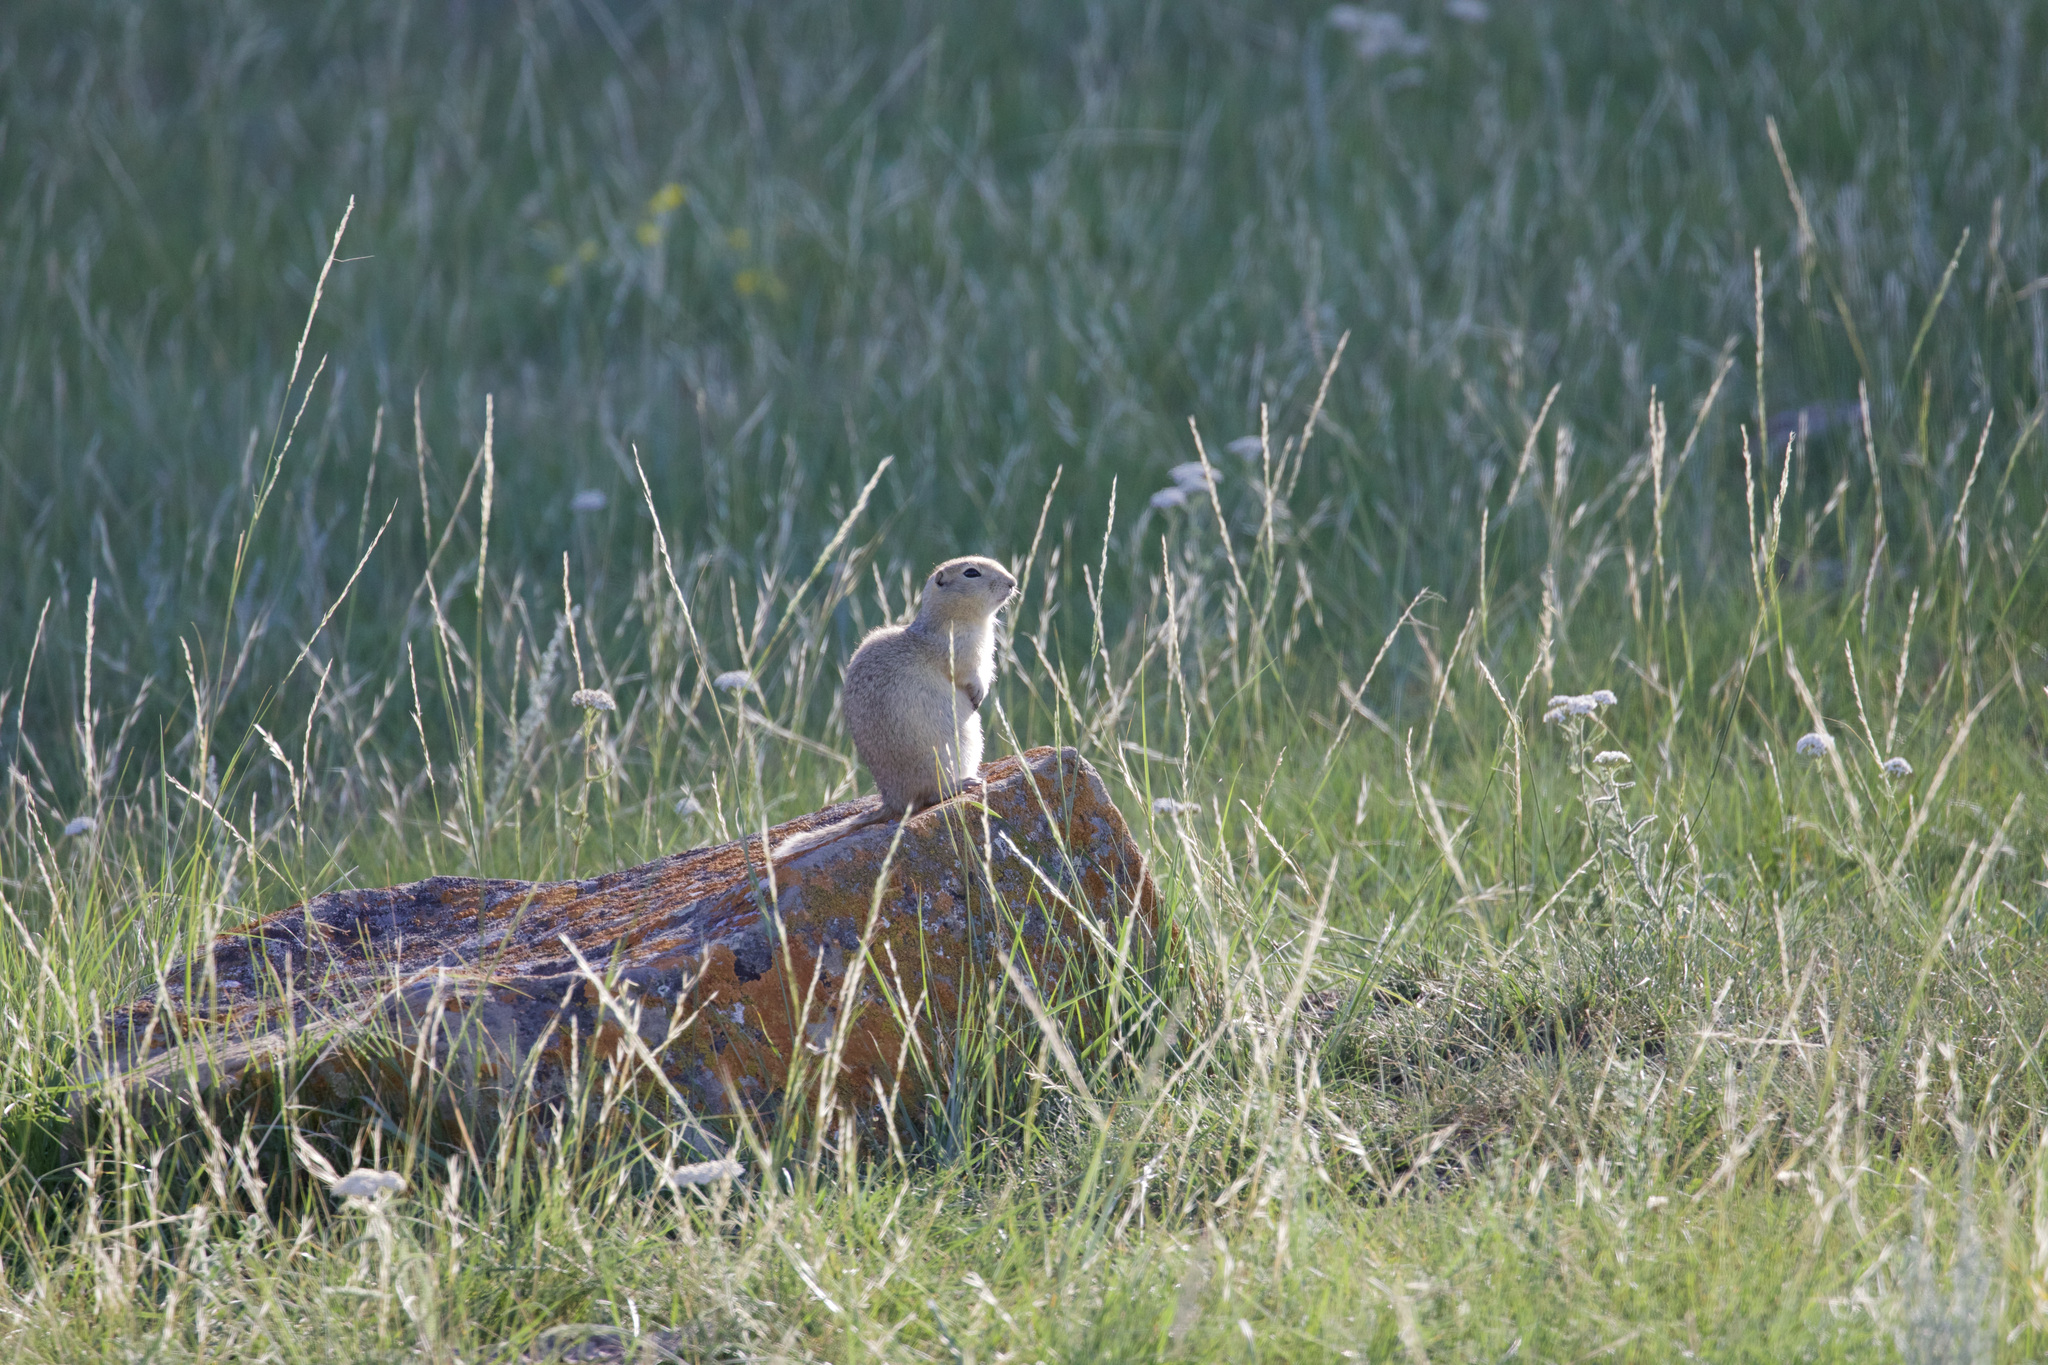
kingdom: Animalia
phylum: Chordata
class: Mammalia
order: Rodentia
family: Sciuridae
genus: Urocitellus
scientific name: Urocitellus richardsonii
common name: Richardson's ground squirrel
